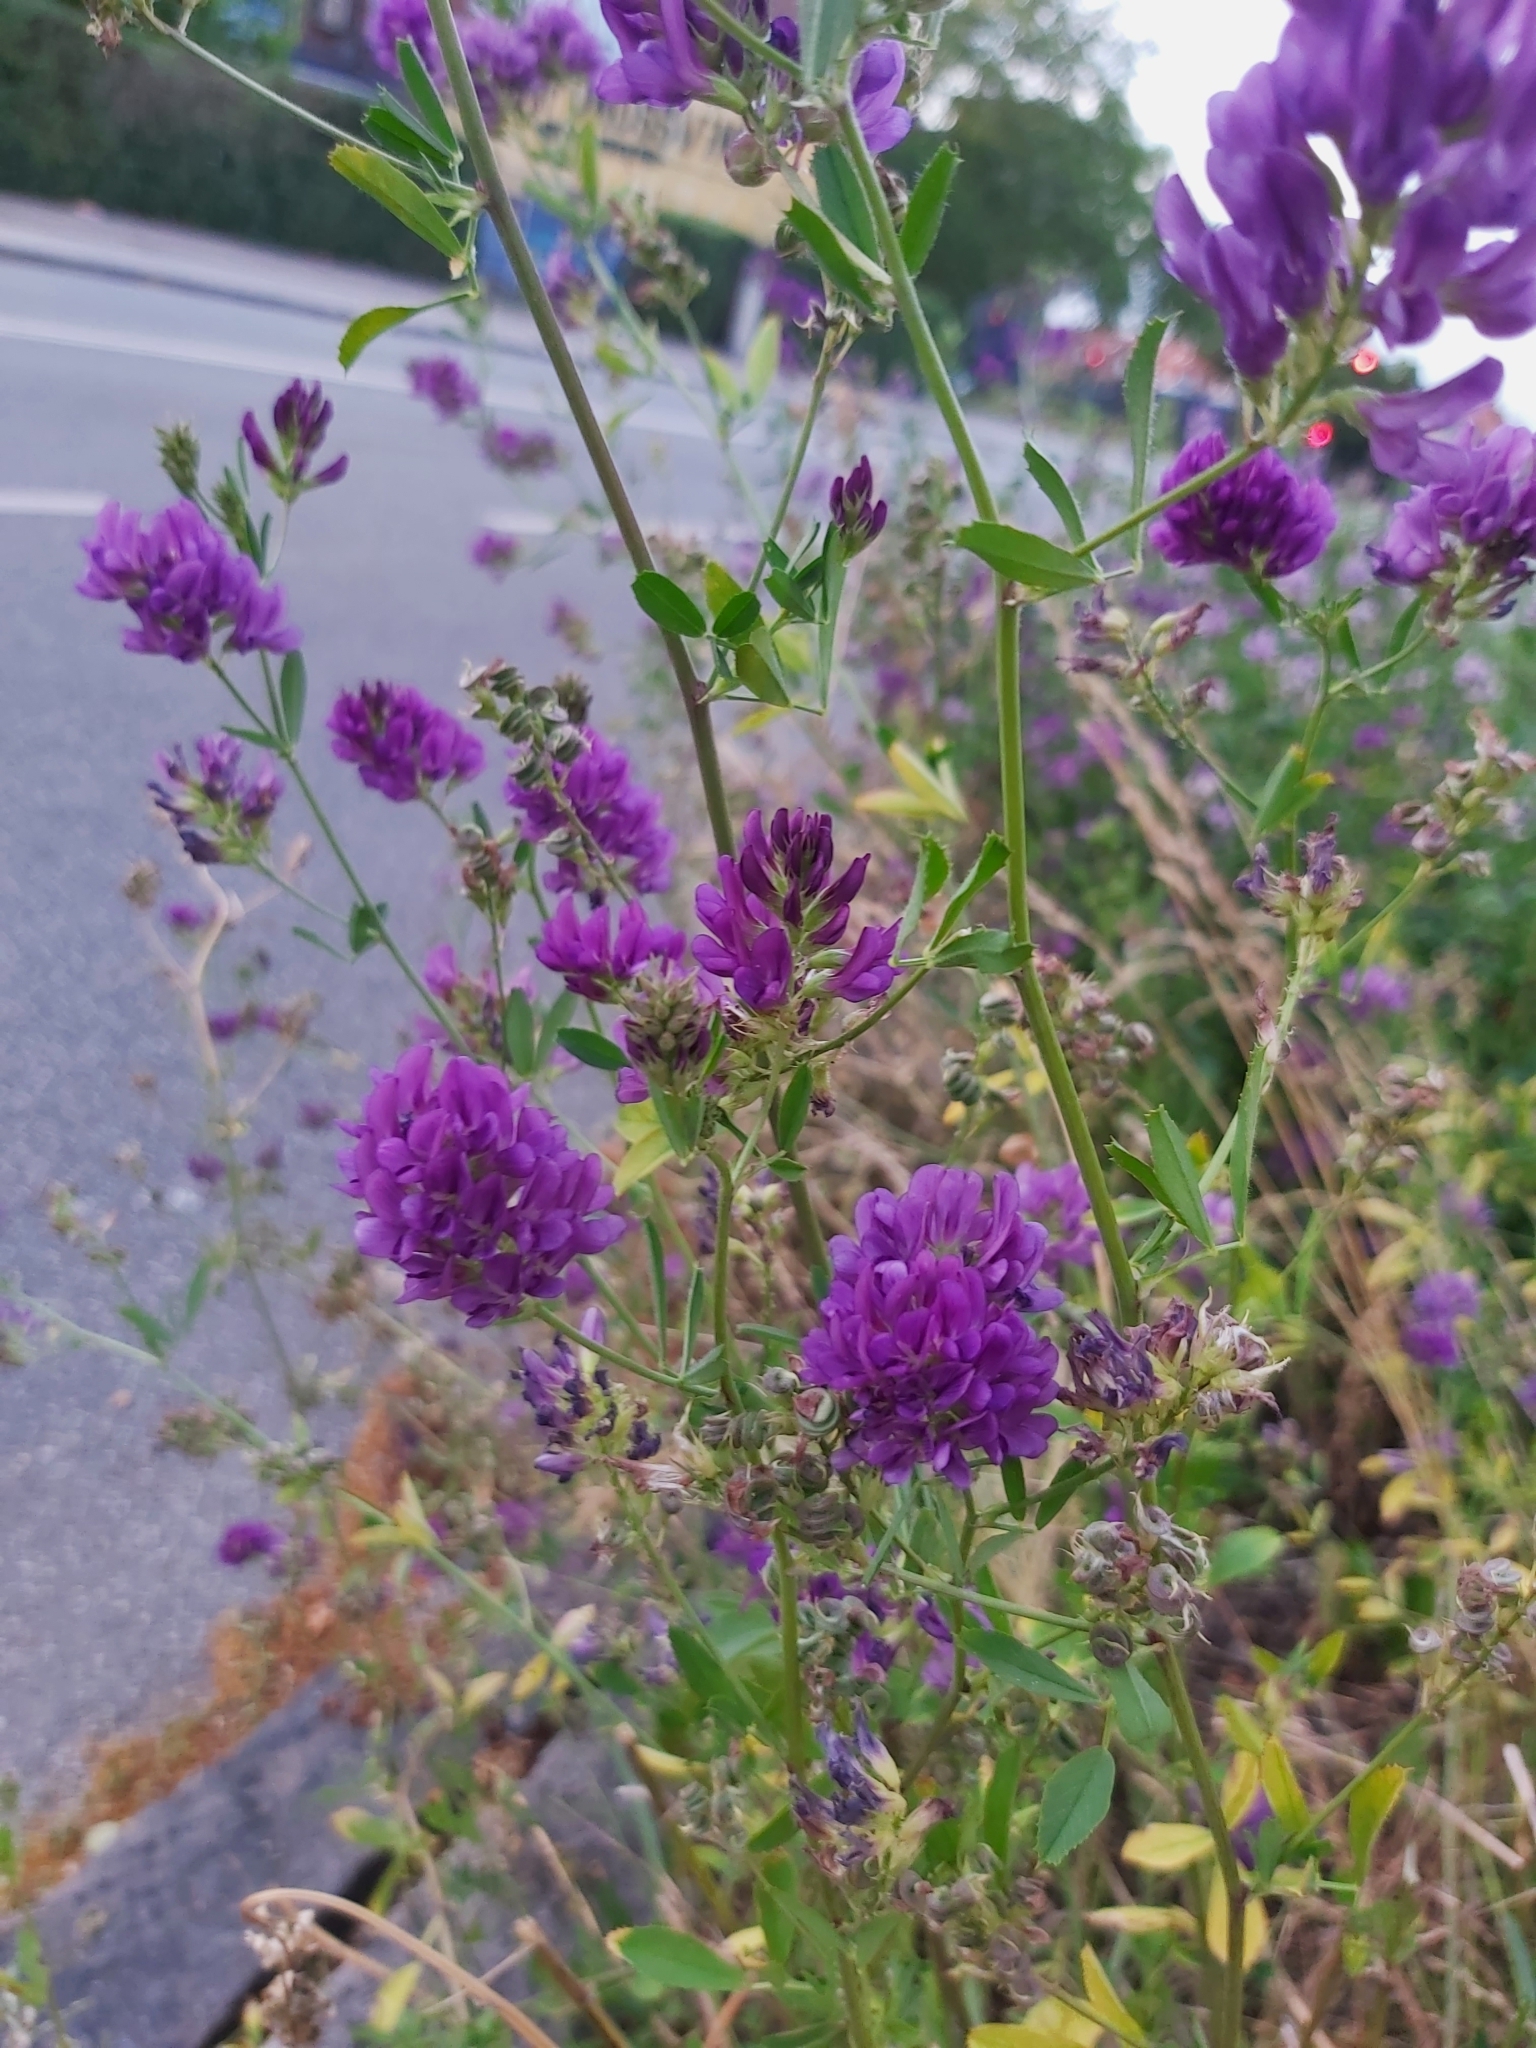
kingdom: Plantae
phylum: Tracheophyta
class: Magnoliopsida
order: Fabales
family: Fabaceae
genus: Medicago
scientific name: Medicago sativa
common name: Alfalfa
